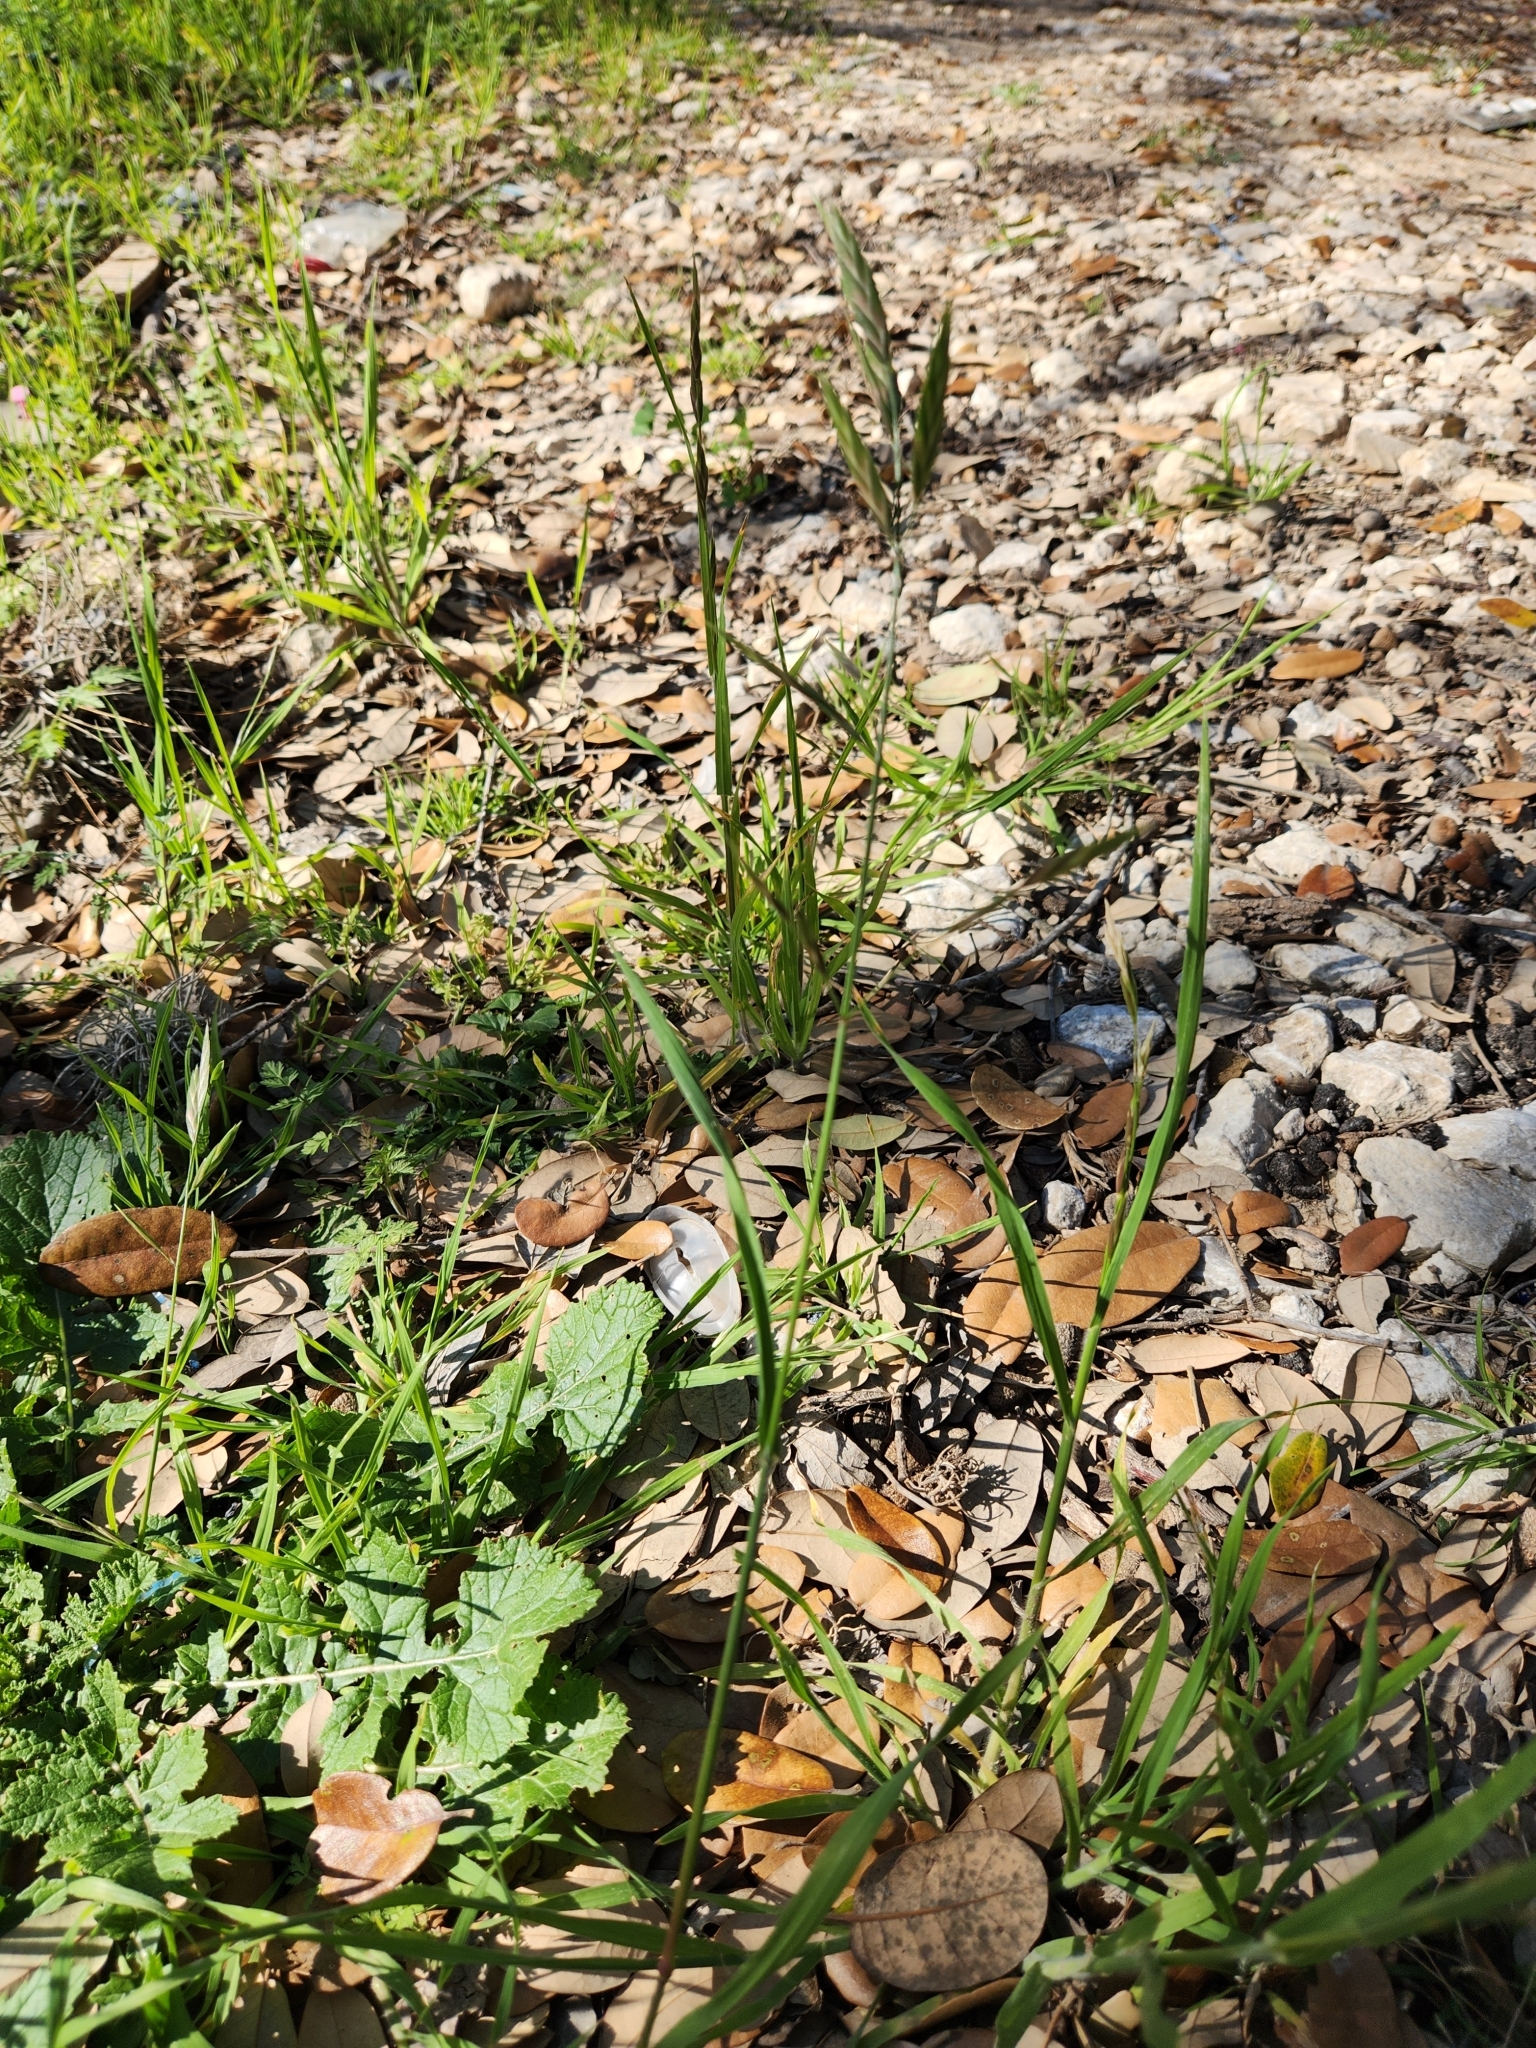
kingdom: Plantae
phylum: Tracheophyta
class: Liliopsida
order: Poales
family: Poaceae
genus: Bromus
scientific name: Bromus catharticus
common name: Rescuegrass
